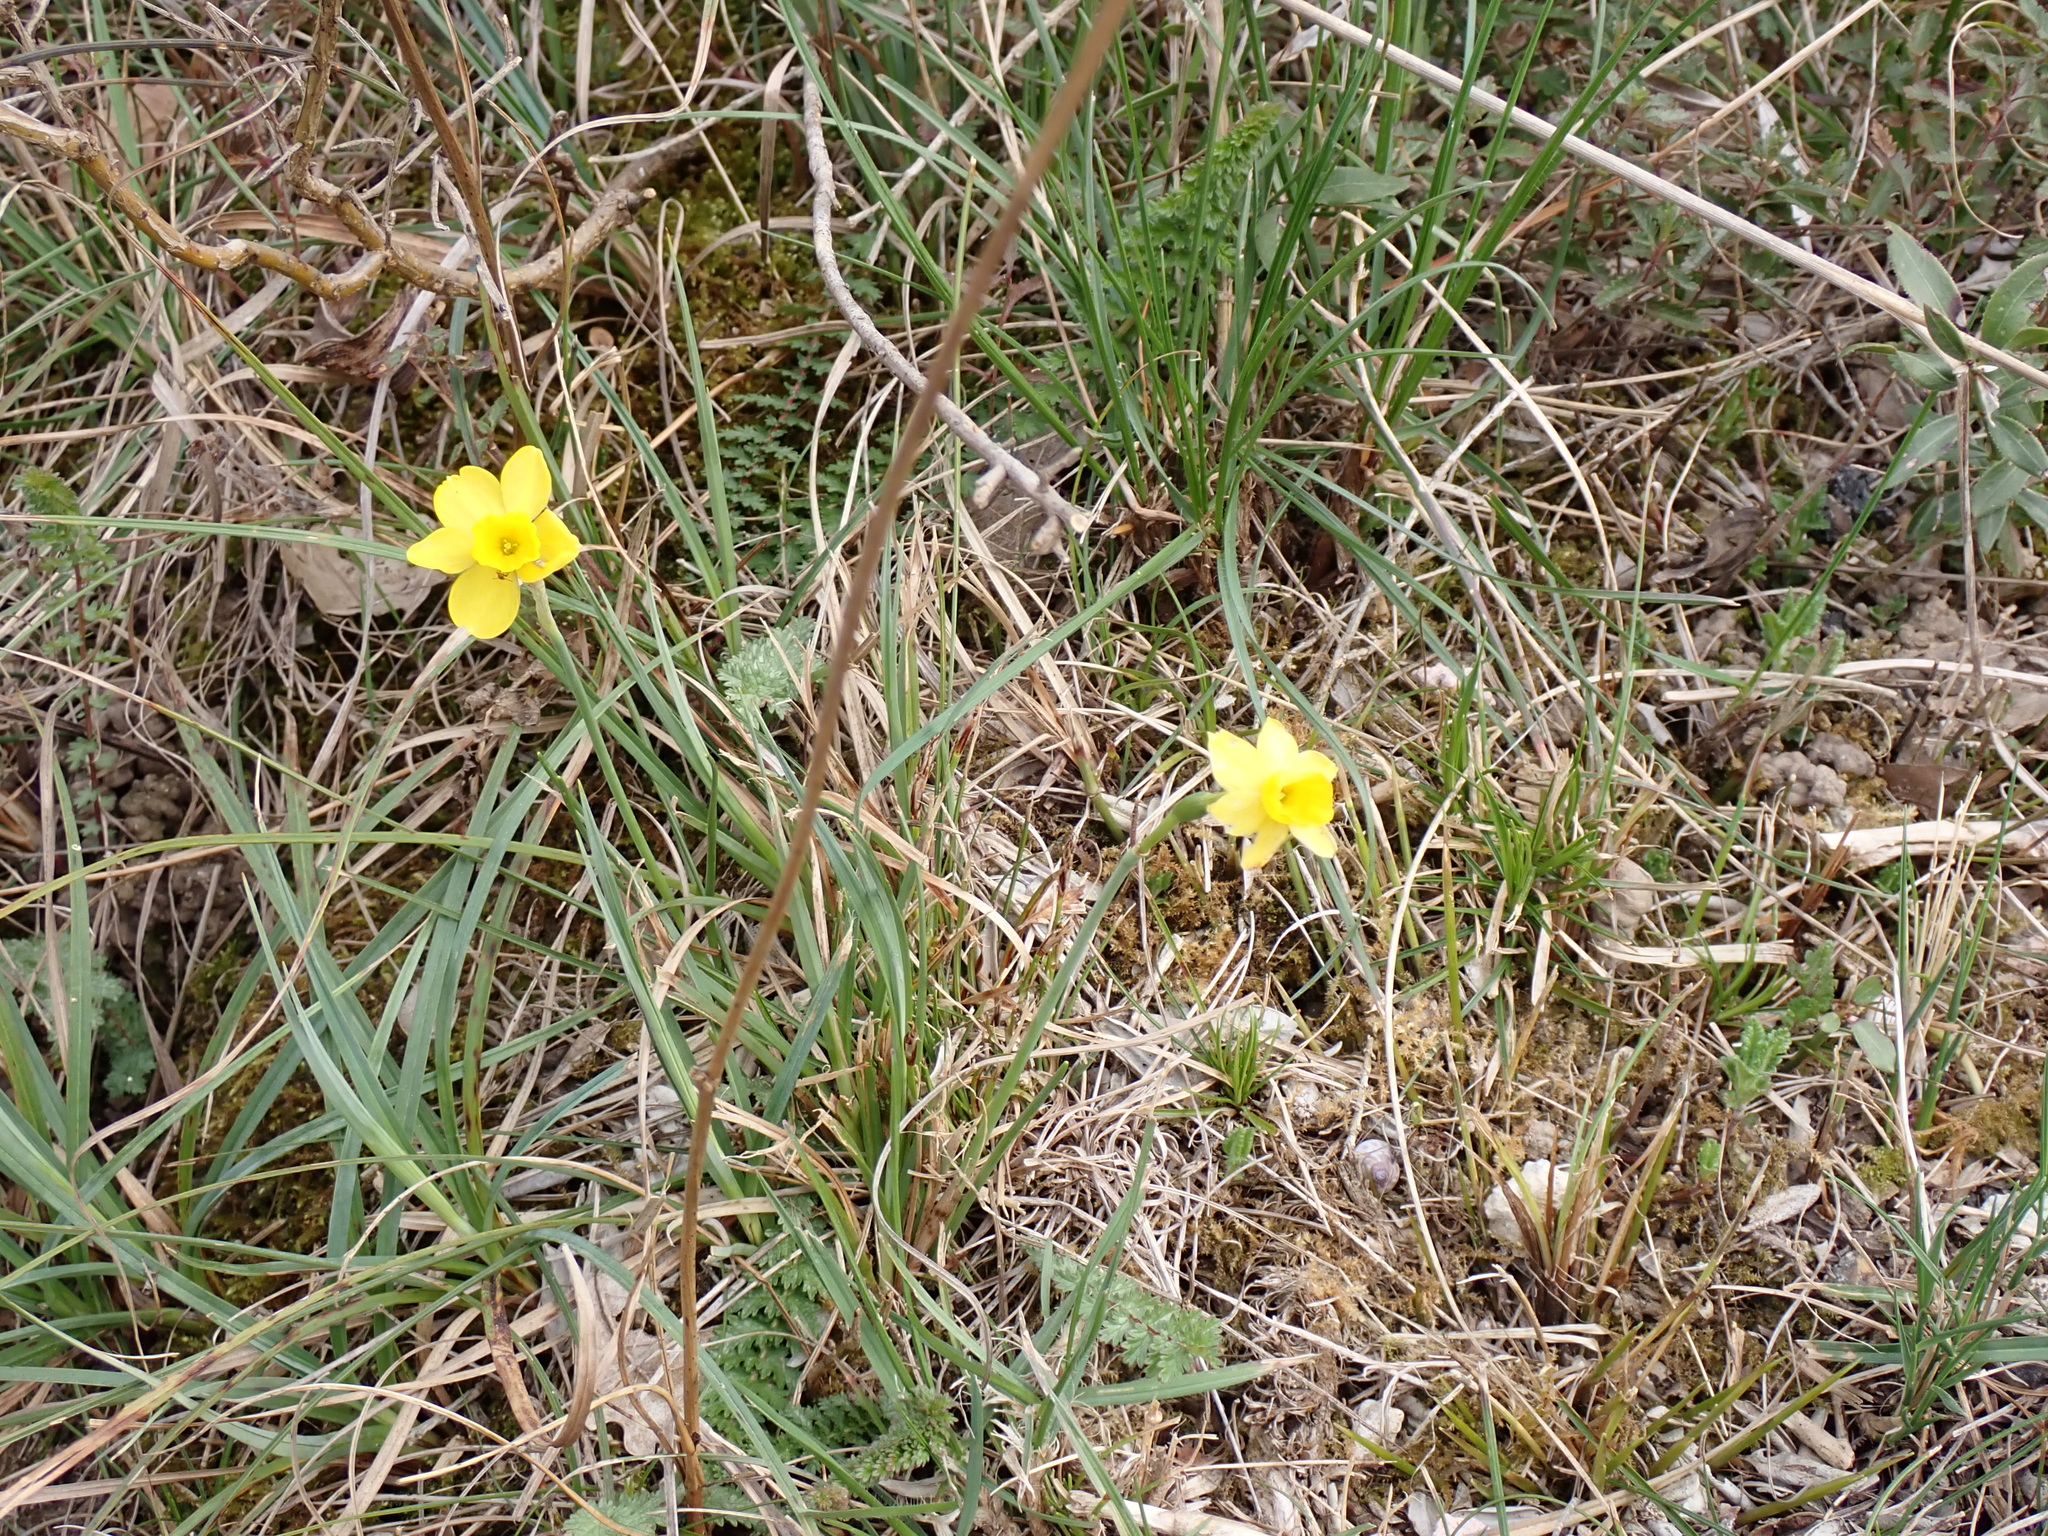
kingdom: Plantae
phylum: Tracheophyta
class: Liliopsida
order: Asparagales
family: Amaryllidaceae
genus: Narcissus
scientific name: Narcissus assoanus
